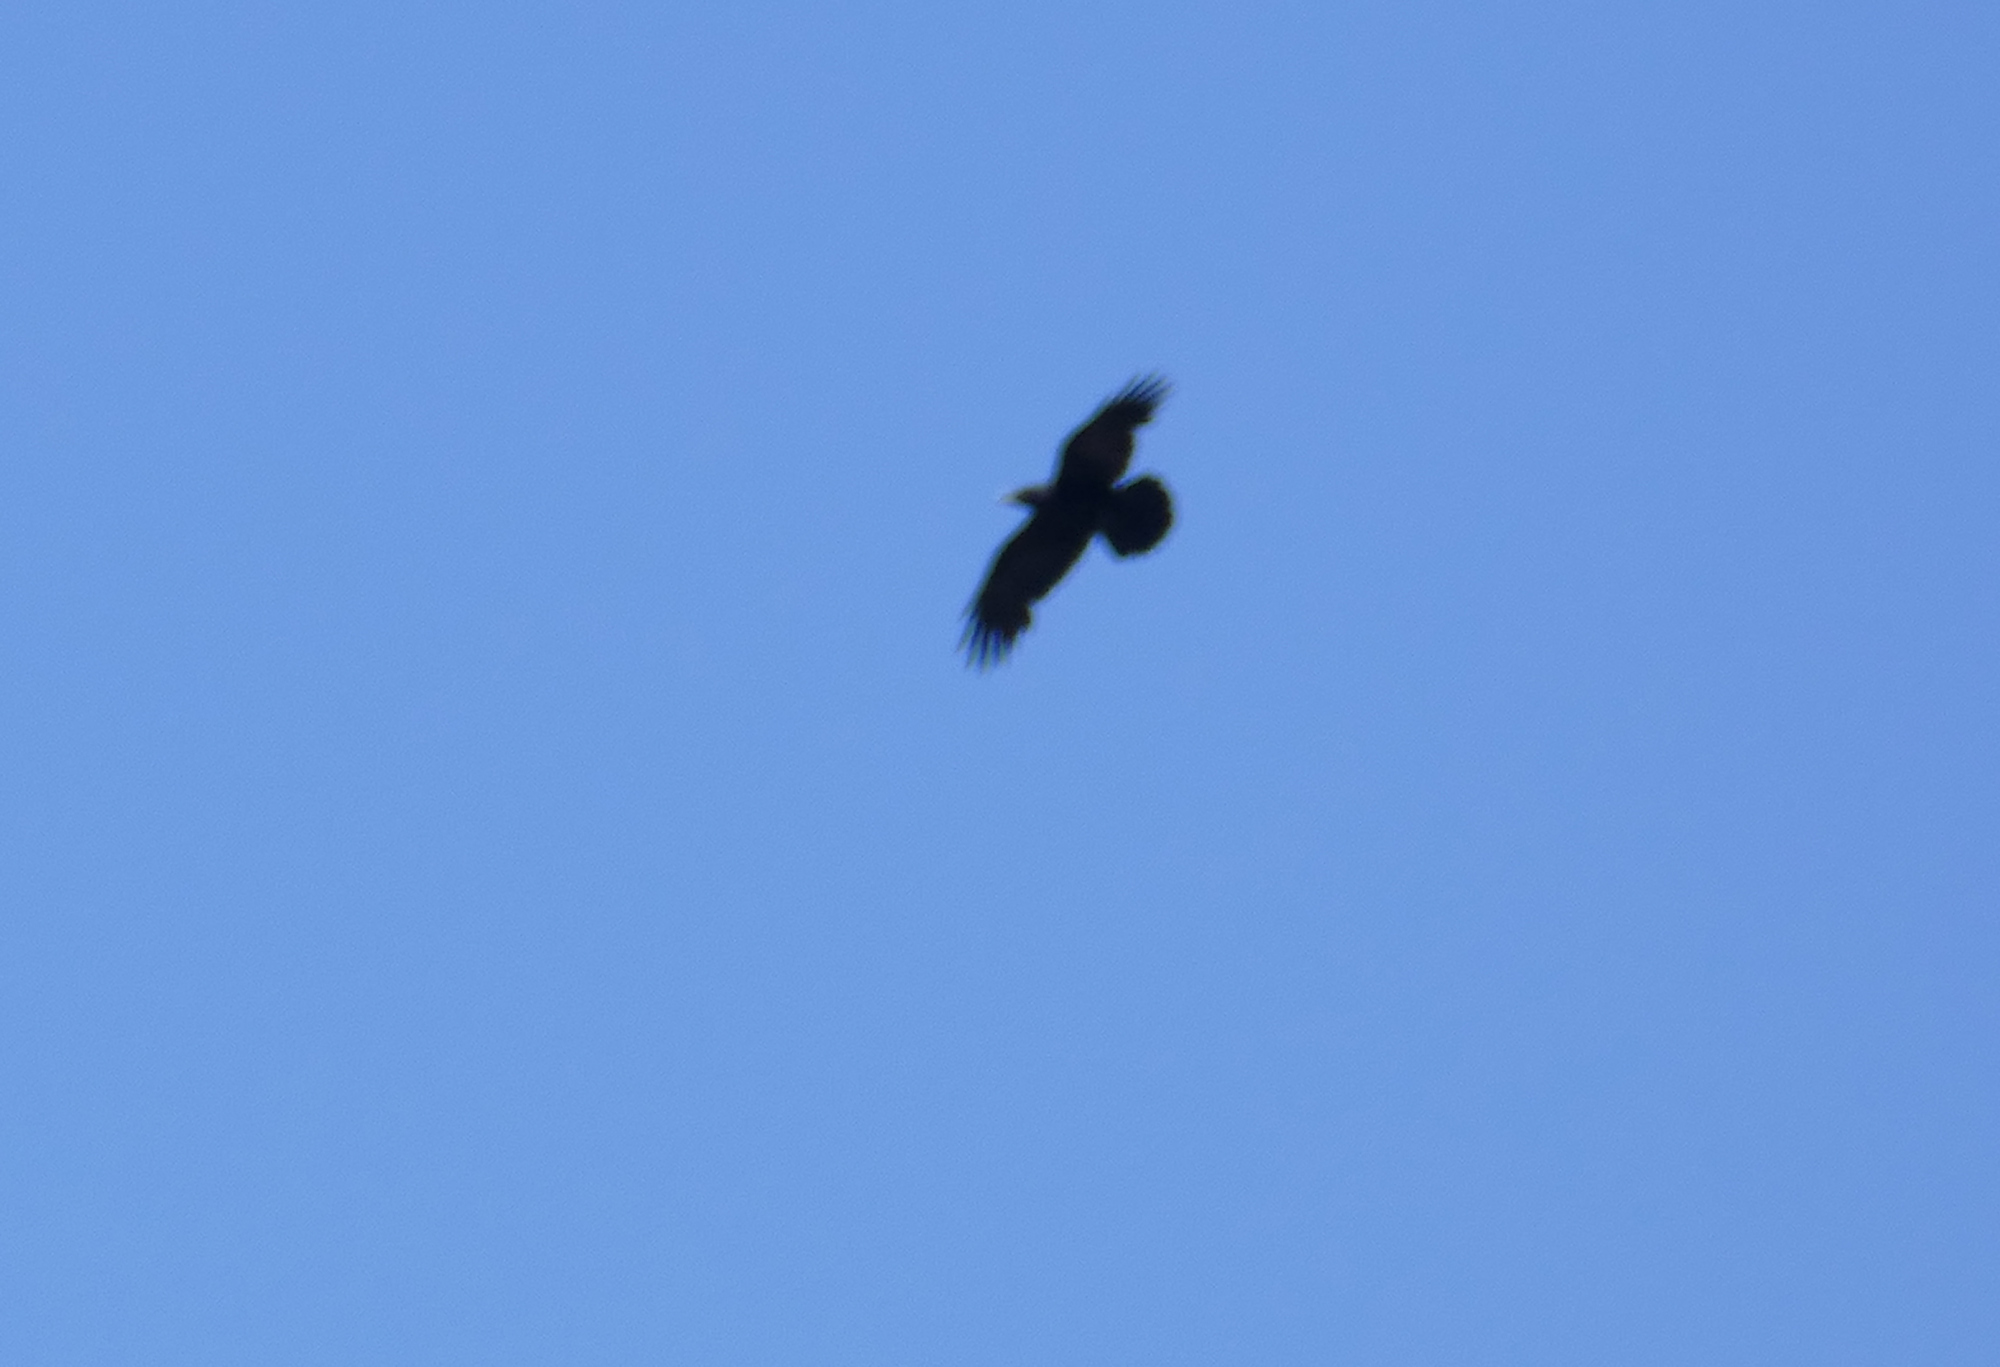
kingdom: Animalia
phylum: Chordata
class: Aves
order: Passeriformes
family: Corvidae
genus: Corvus
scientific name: Corvus corax
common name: Common raven
